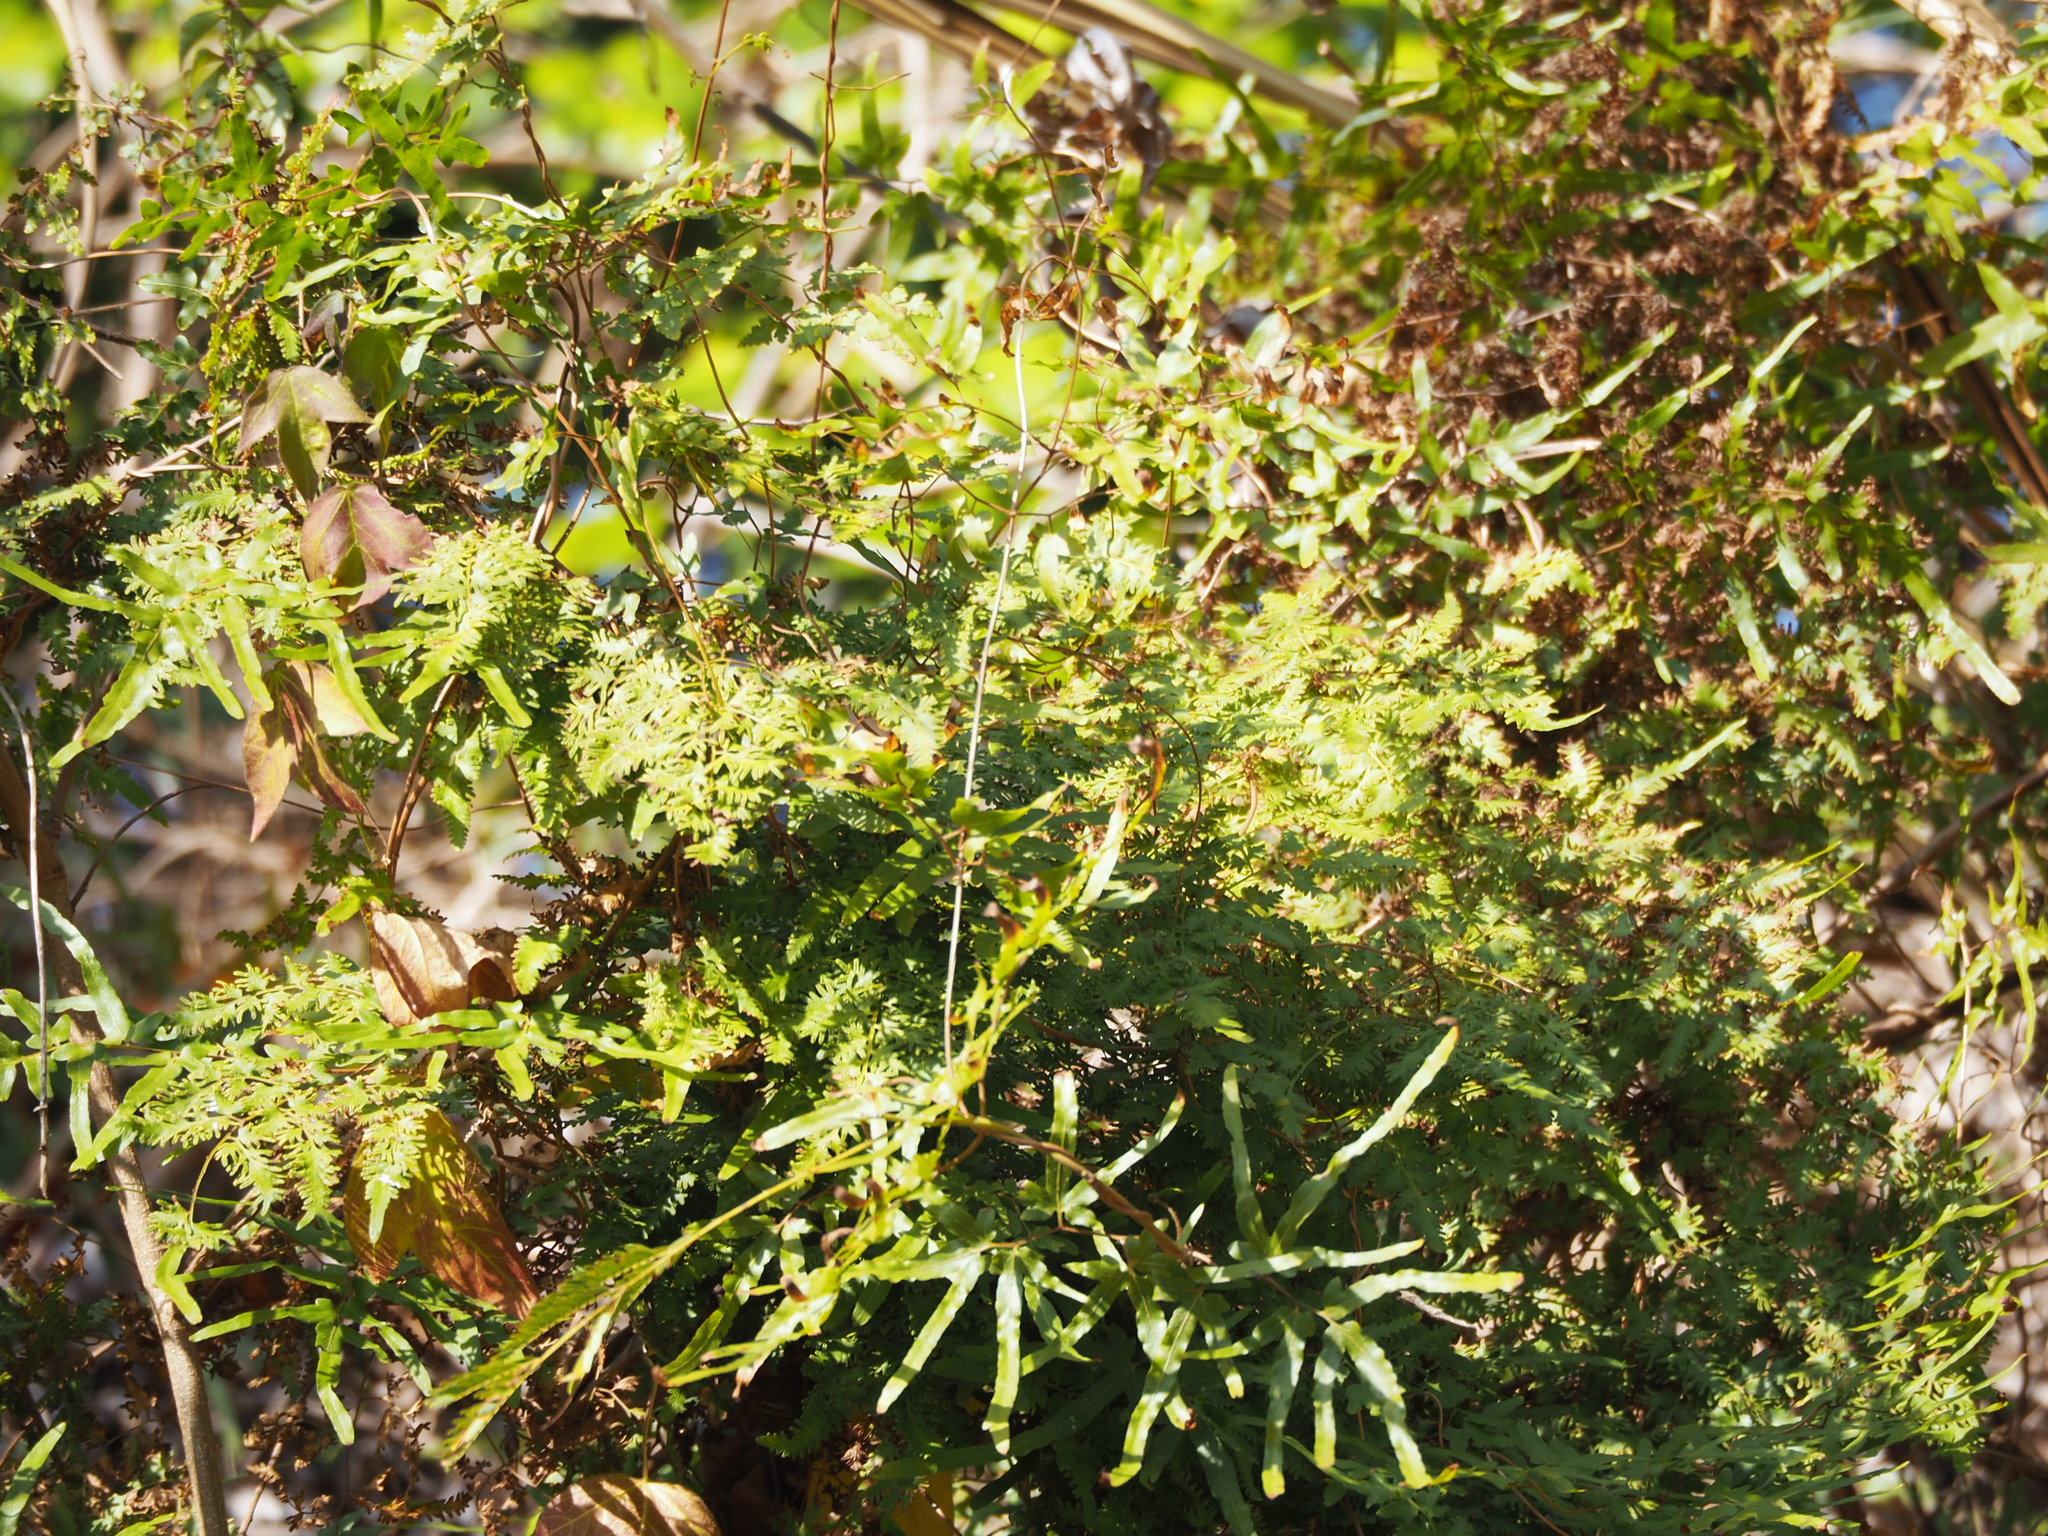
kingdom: Plantae
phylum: Tracheophyta
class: Polypodiopsida
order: Schizaeales
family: Lygodiaceae
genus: Lygodium
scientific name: Lygodium japonicum
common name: Japanese climbing fern
